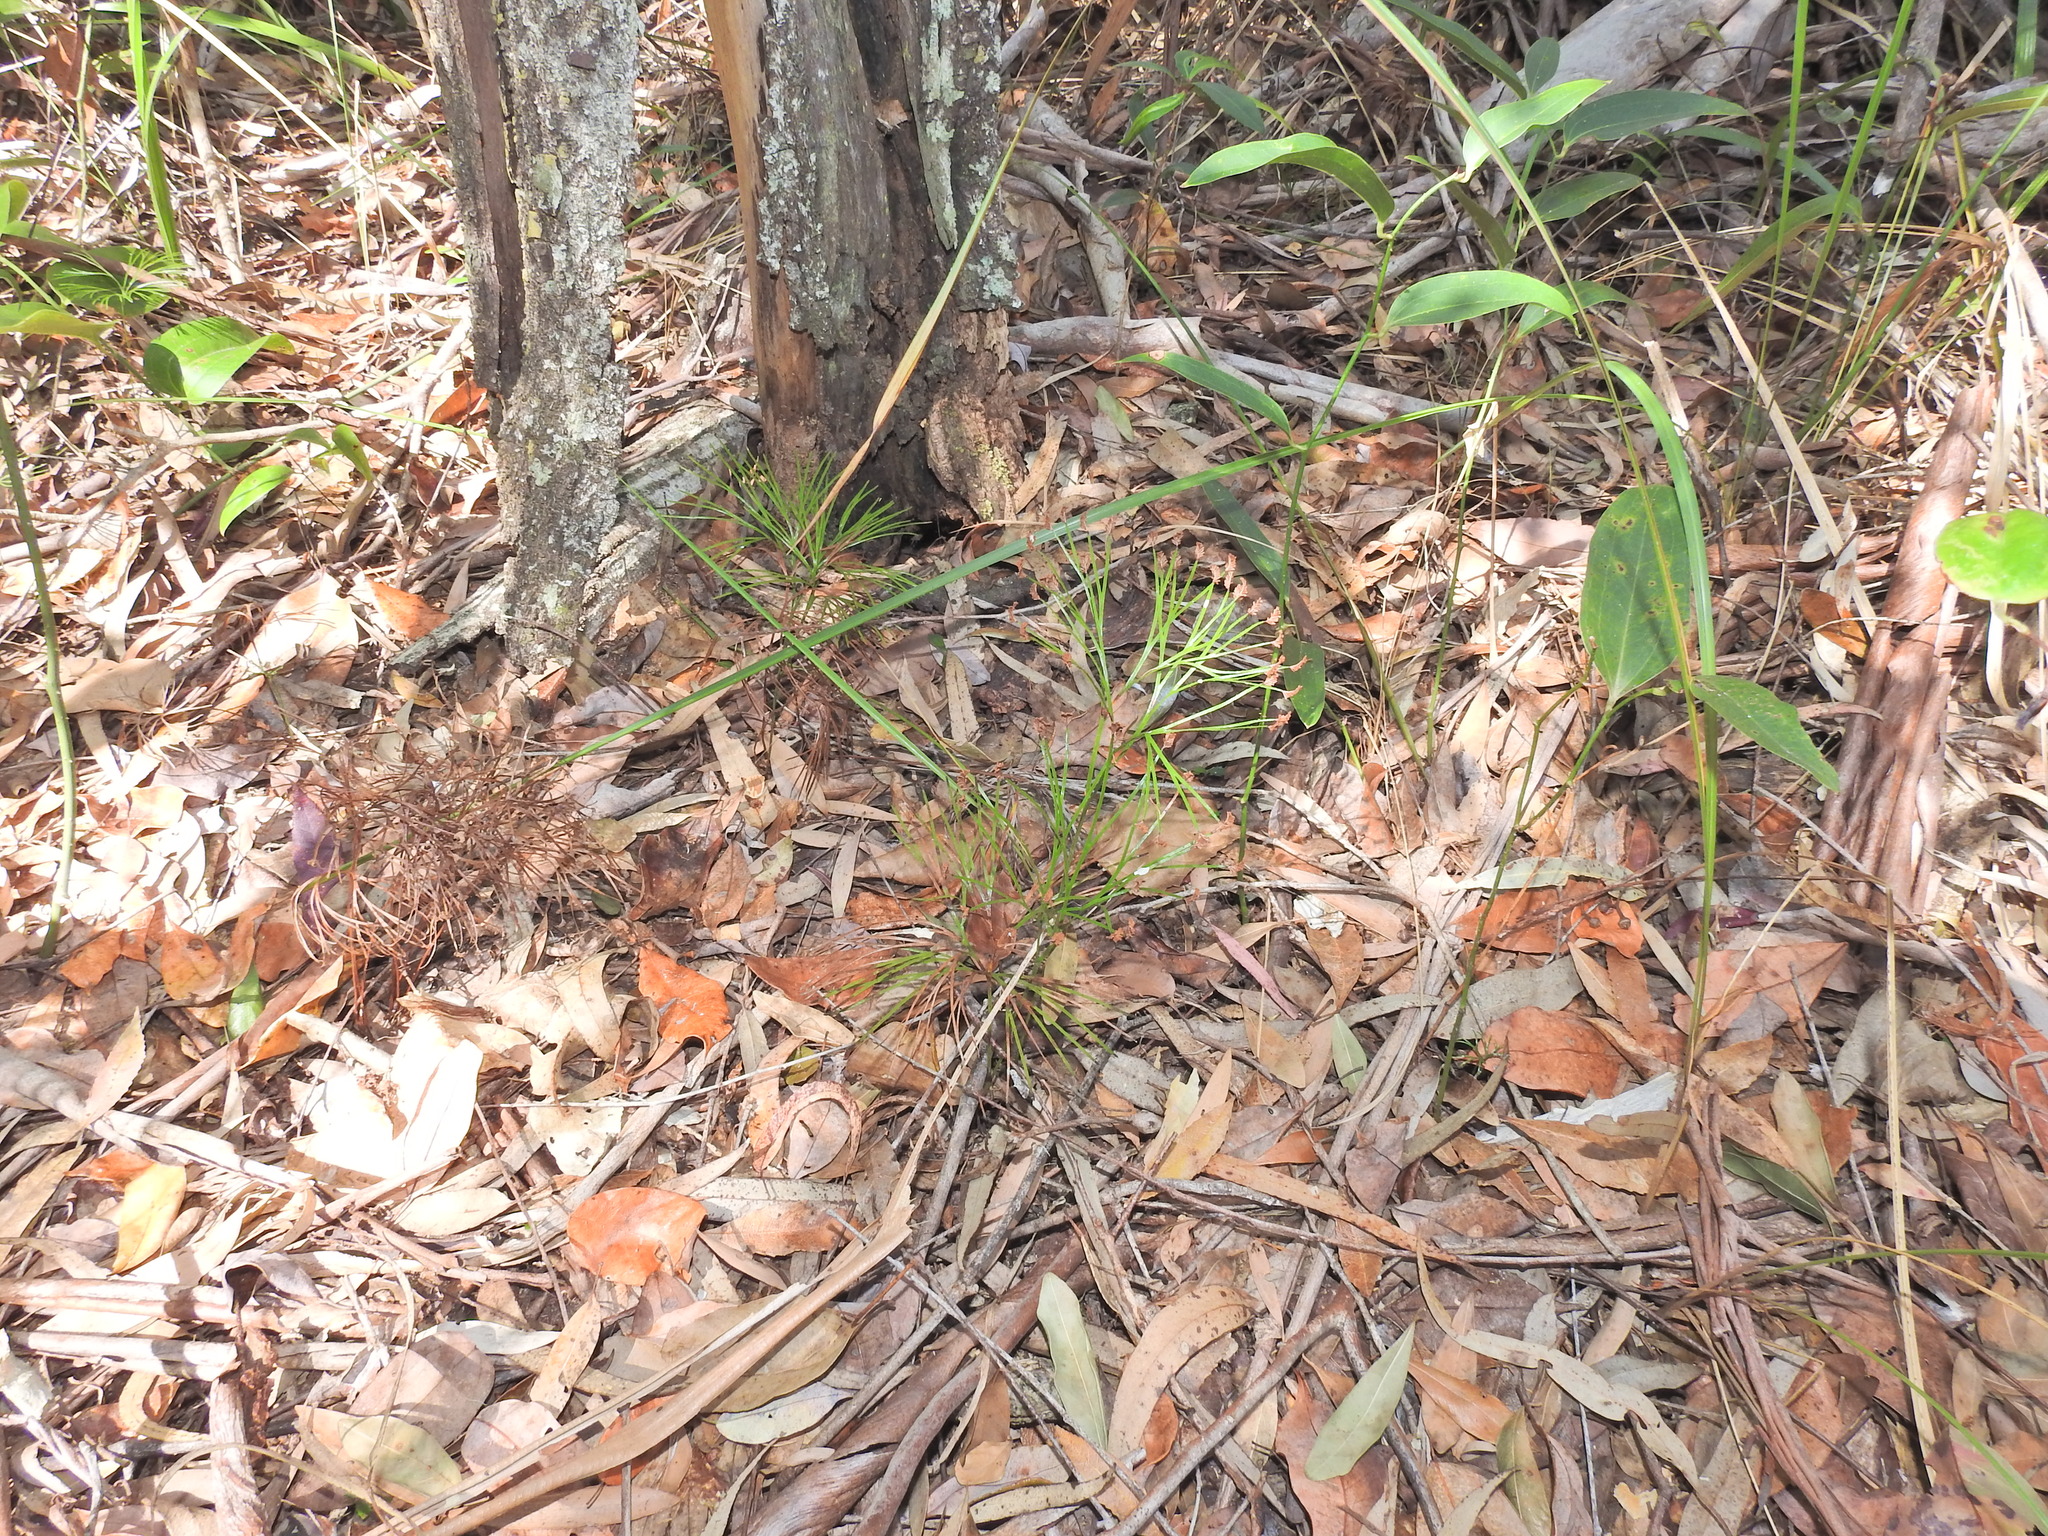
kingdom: Plantae
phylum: Tracheophyta
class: Polypodiopsida
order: Schizaeales
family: Schizaeaceae
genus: Schizaea
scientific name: Schizaea dichotoma
